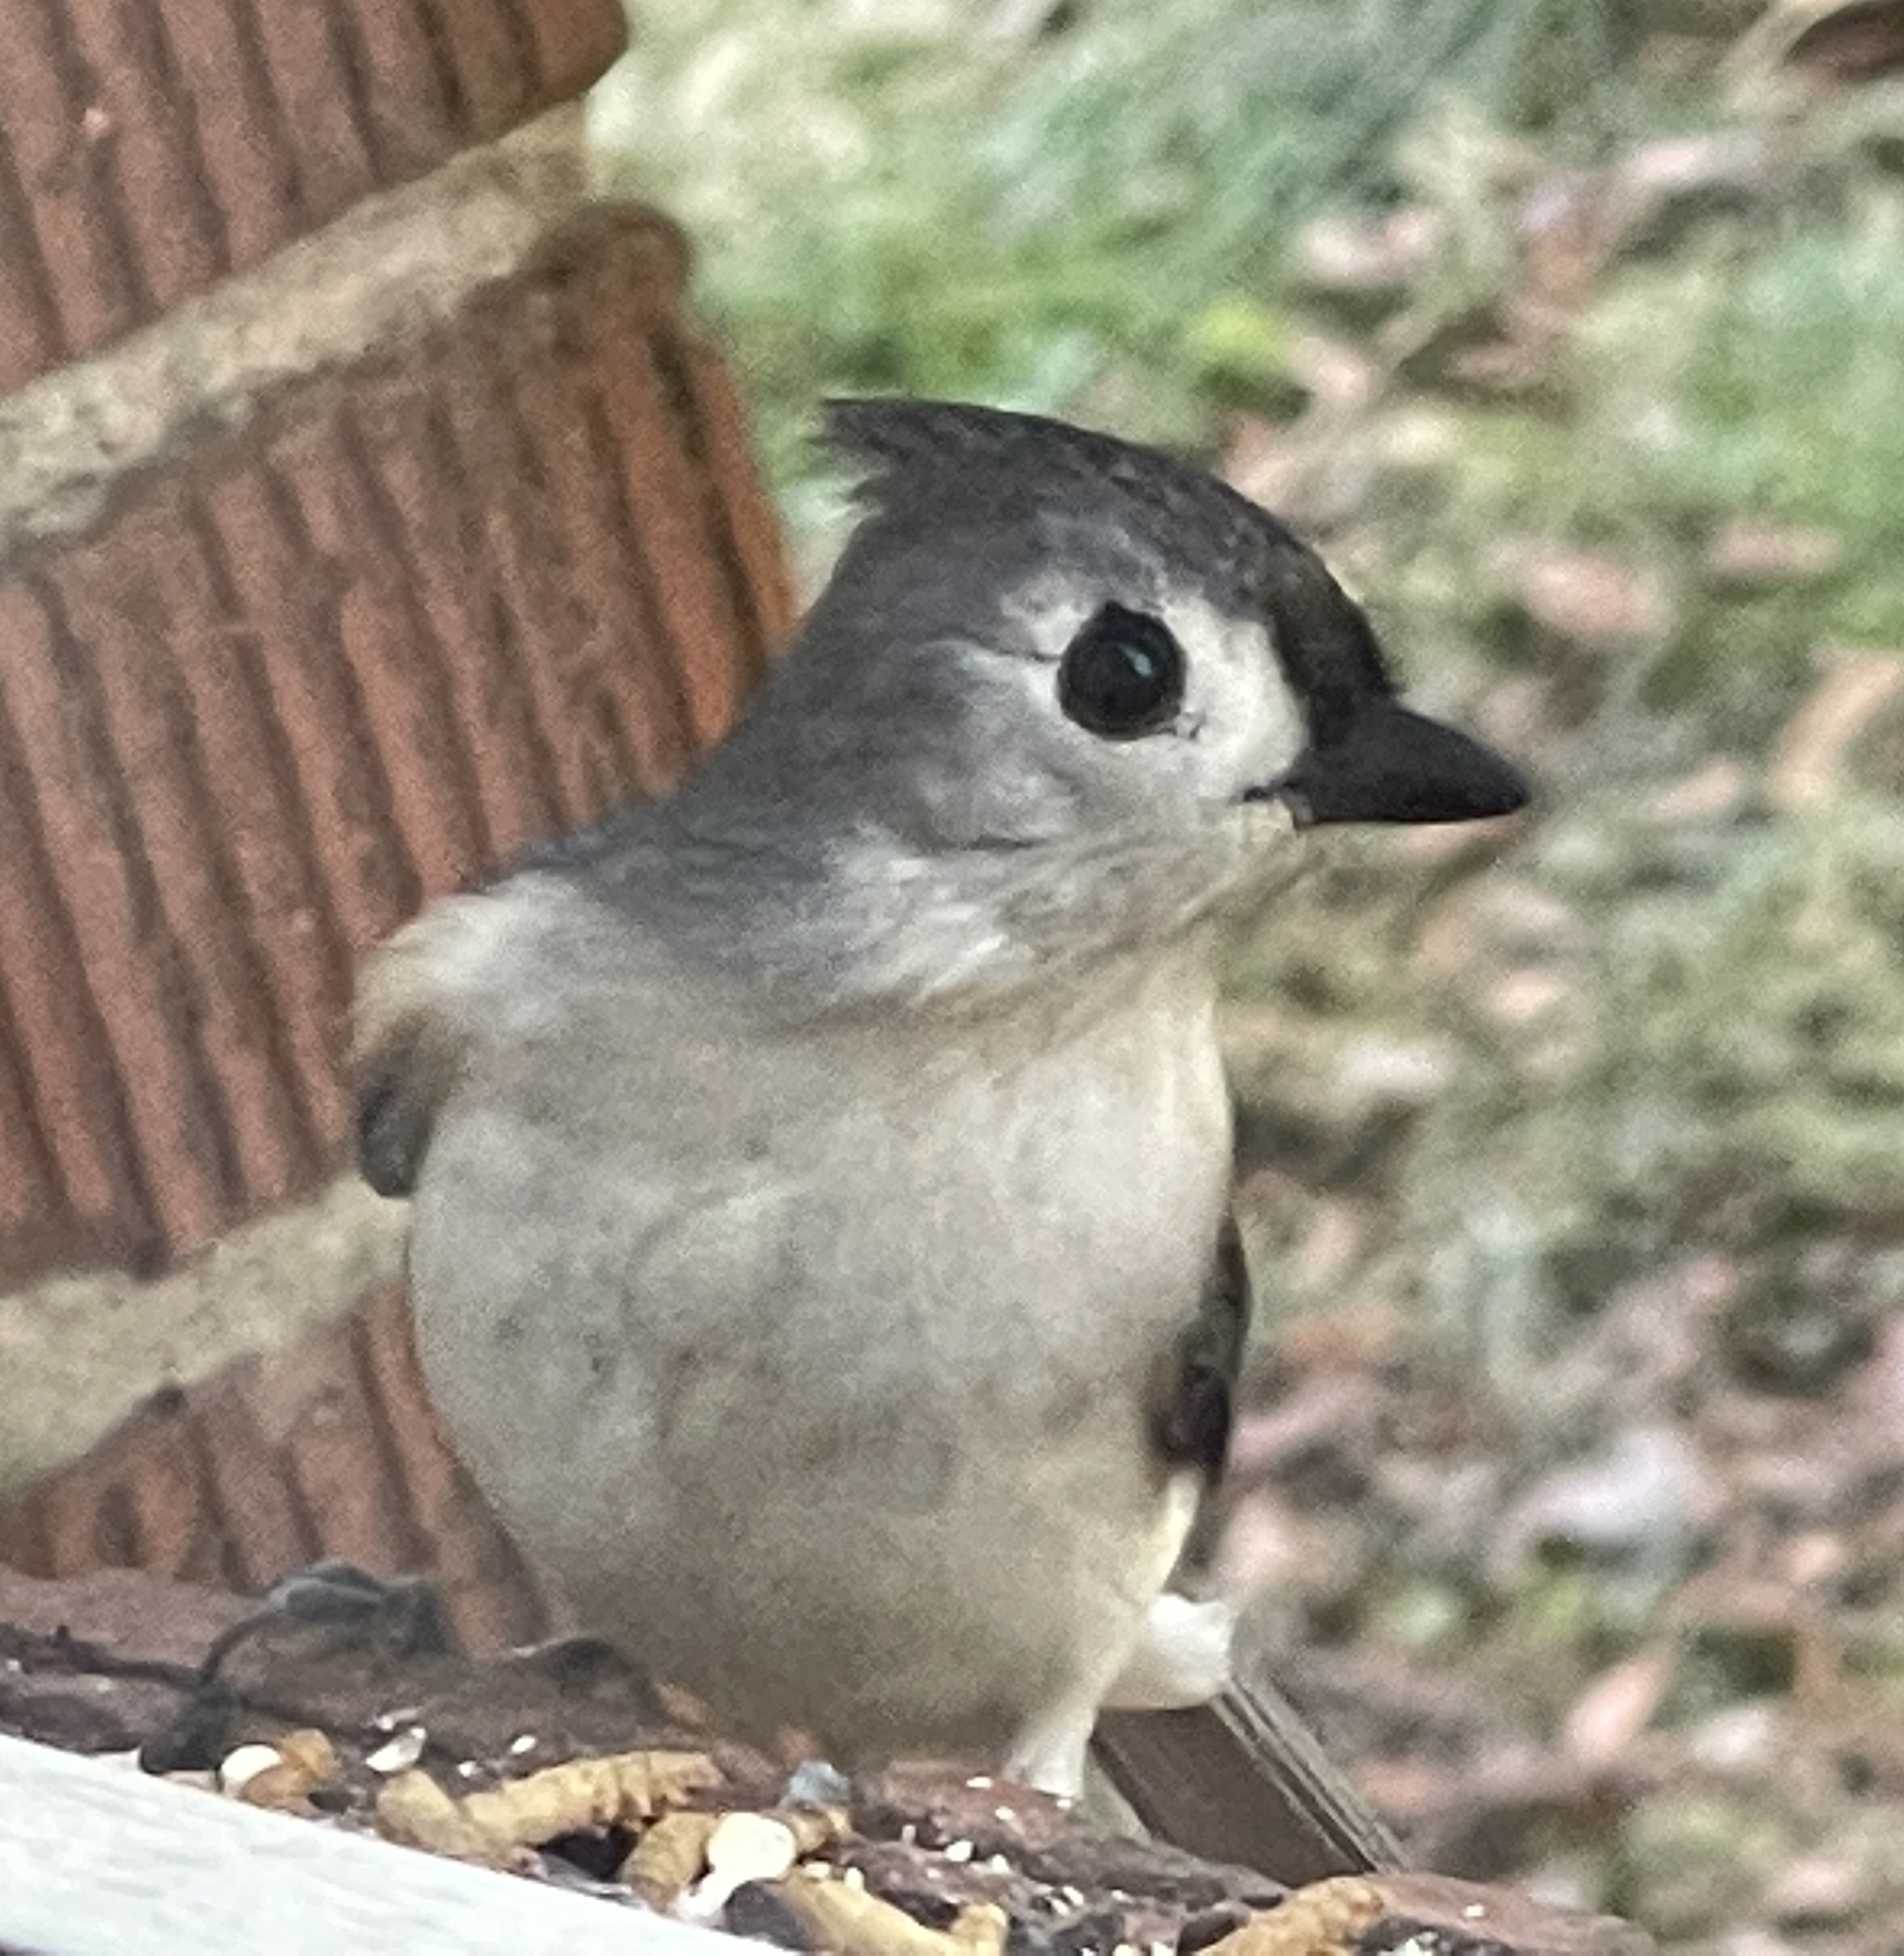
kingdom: Animalia
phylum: Chordata
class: Aves
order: Passeriformes
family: Paridae
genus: Baeolophus
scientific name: Baeolophus bicolor
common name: Tufted titmouse
